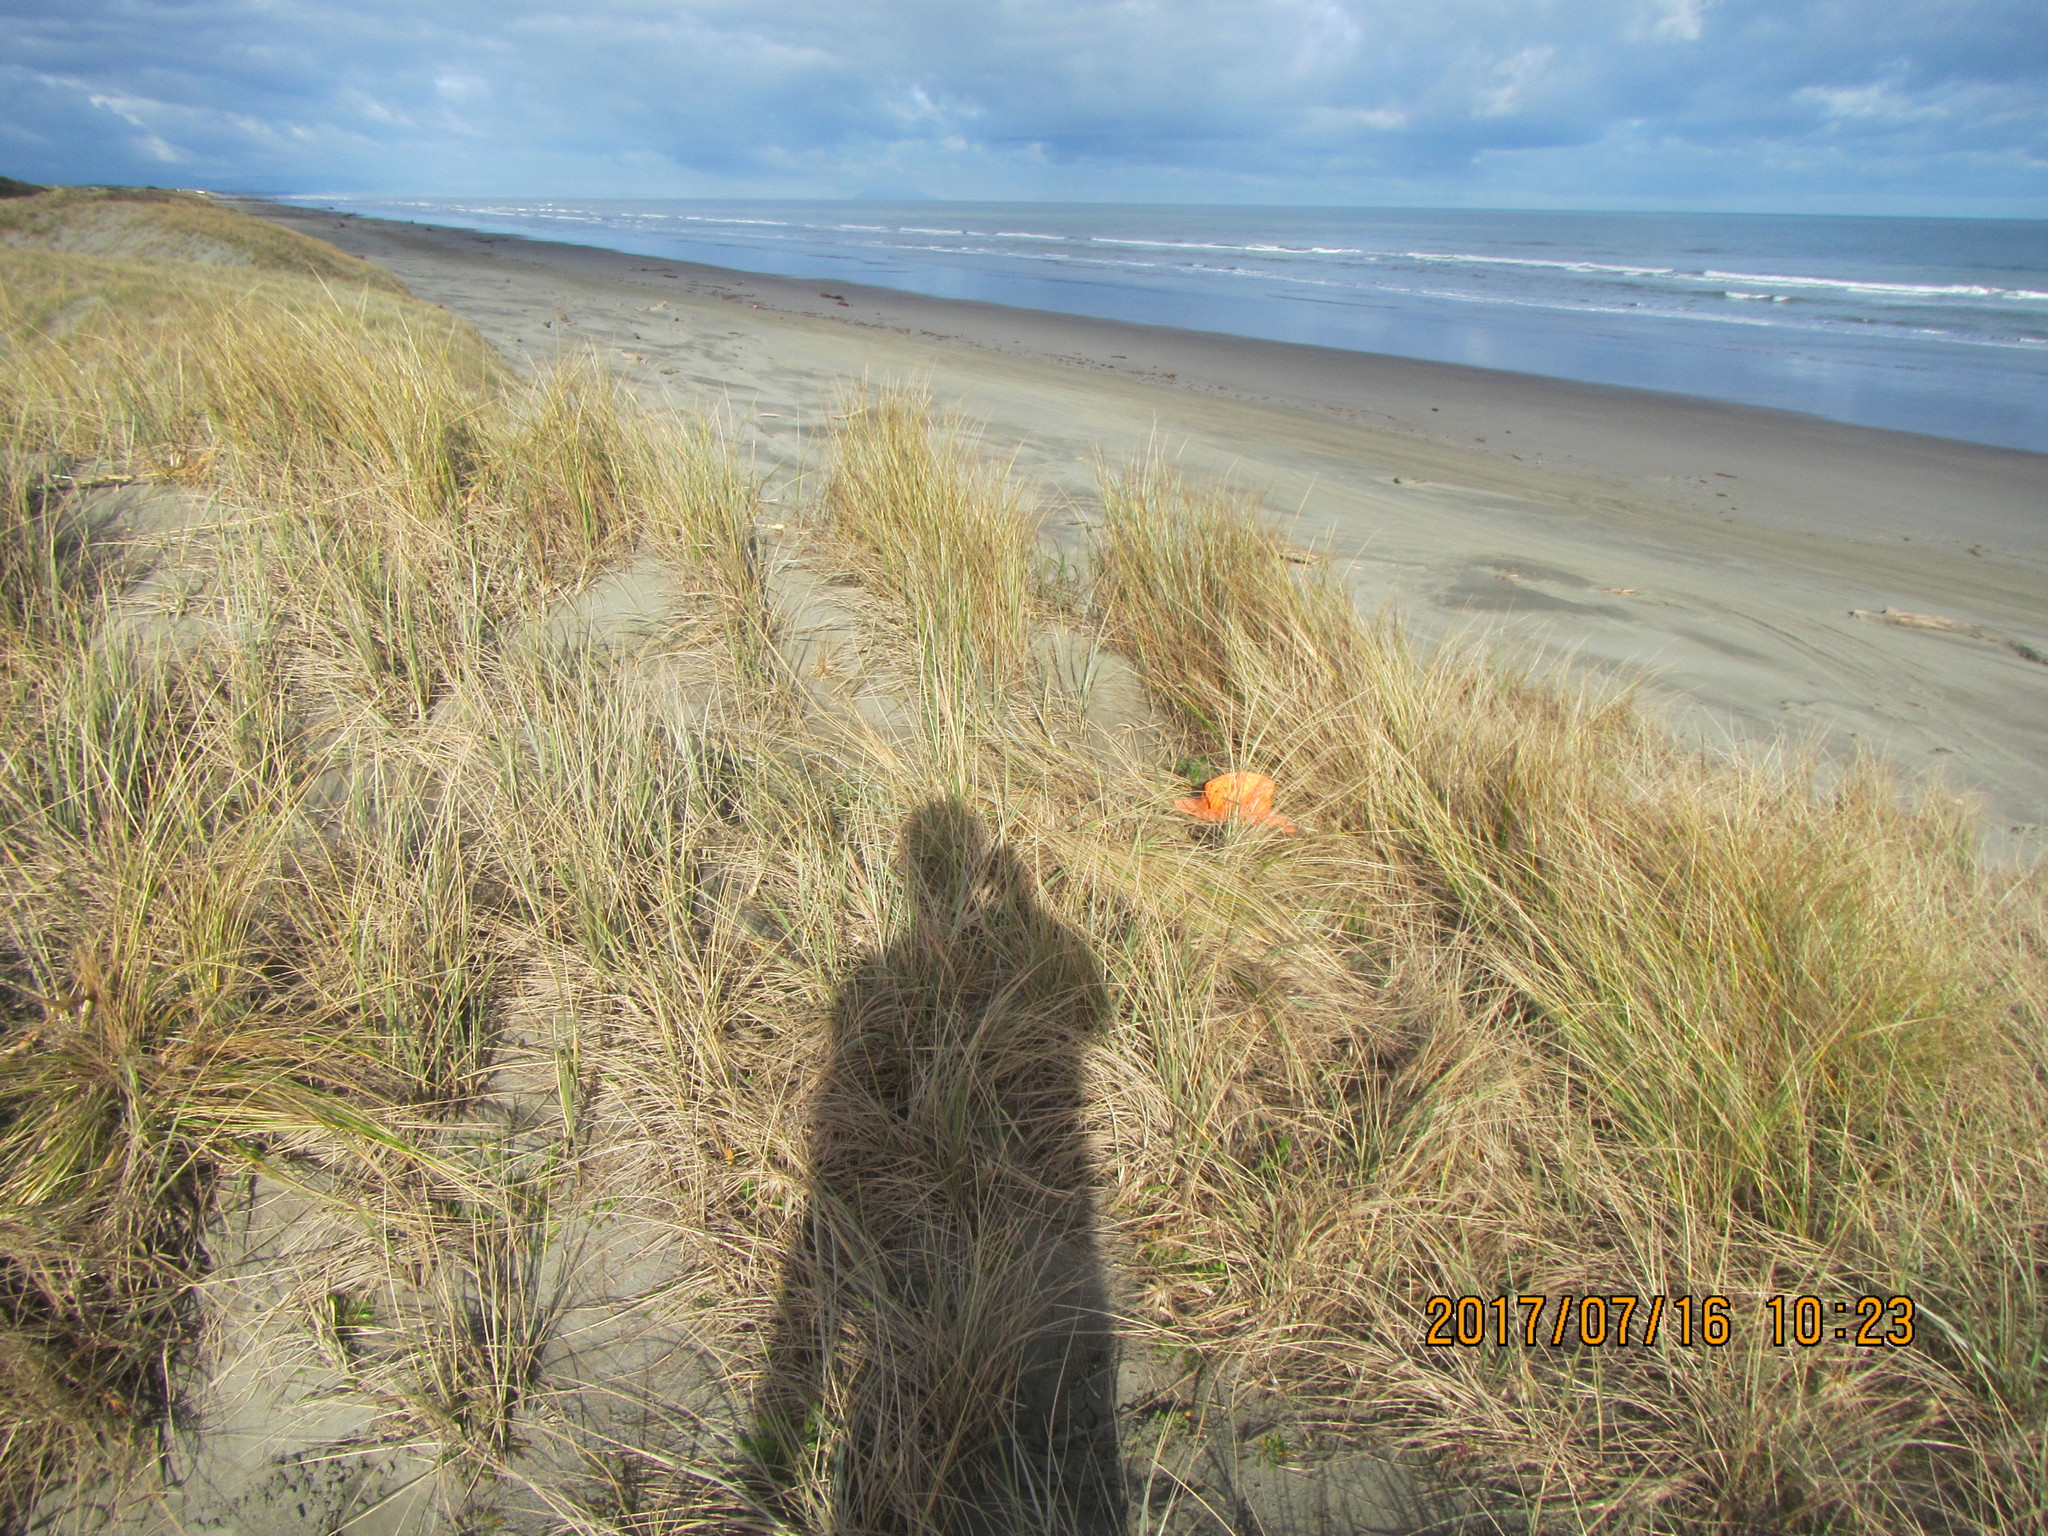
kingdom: Animalia
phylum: Arthropoda
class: Arachnida
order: Araneae
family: Thomisidae
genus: Sidymella
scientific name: Sidymella trapezia
